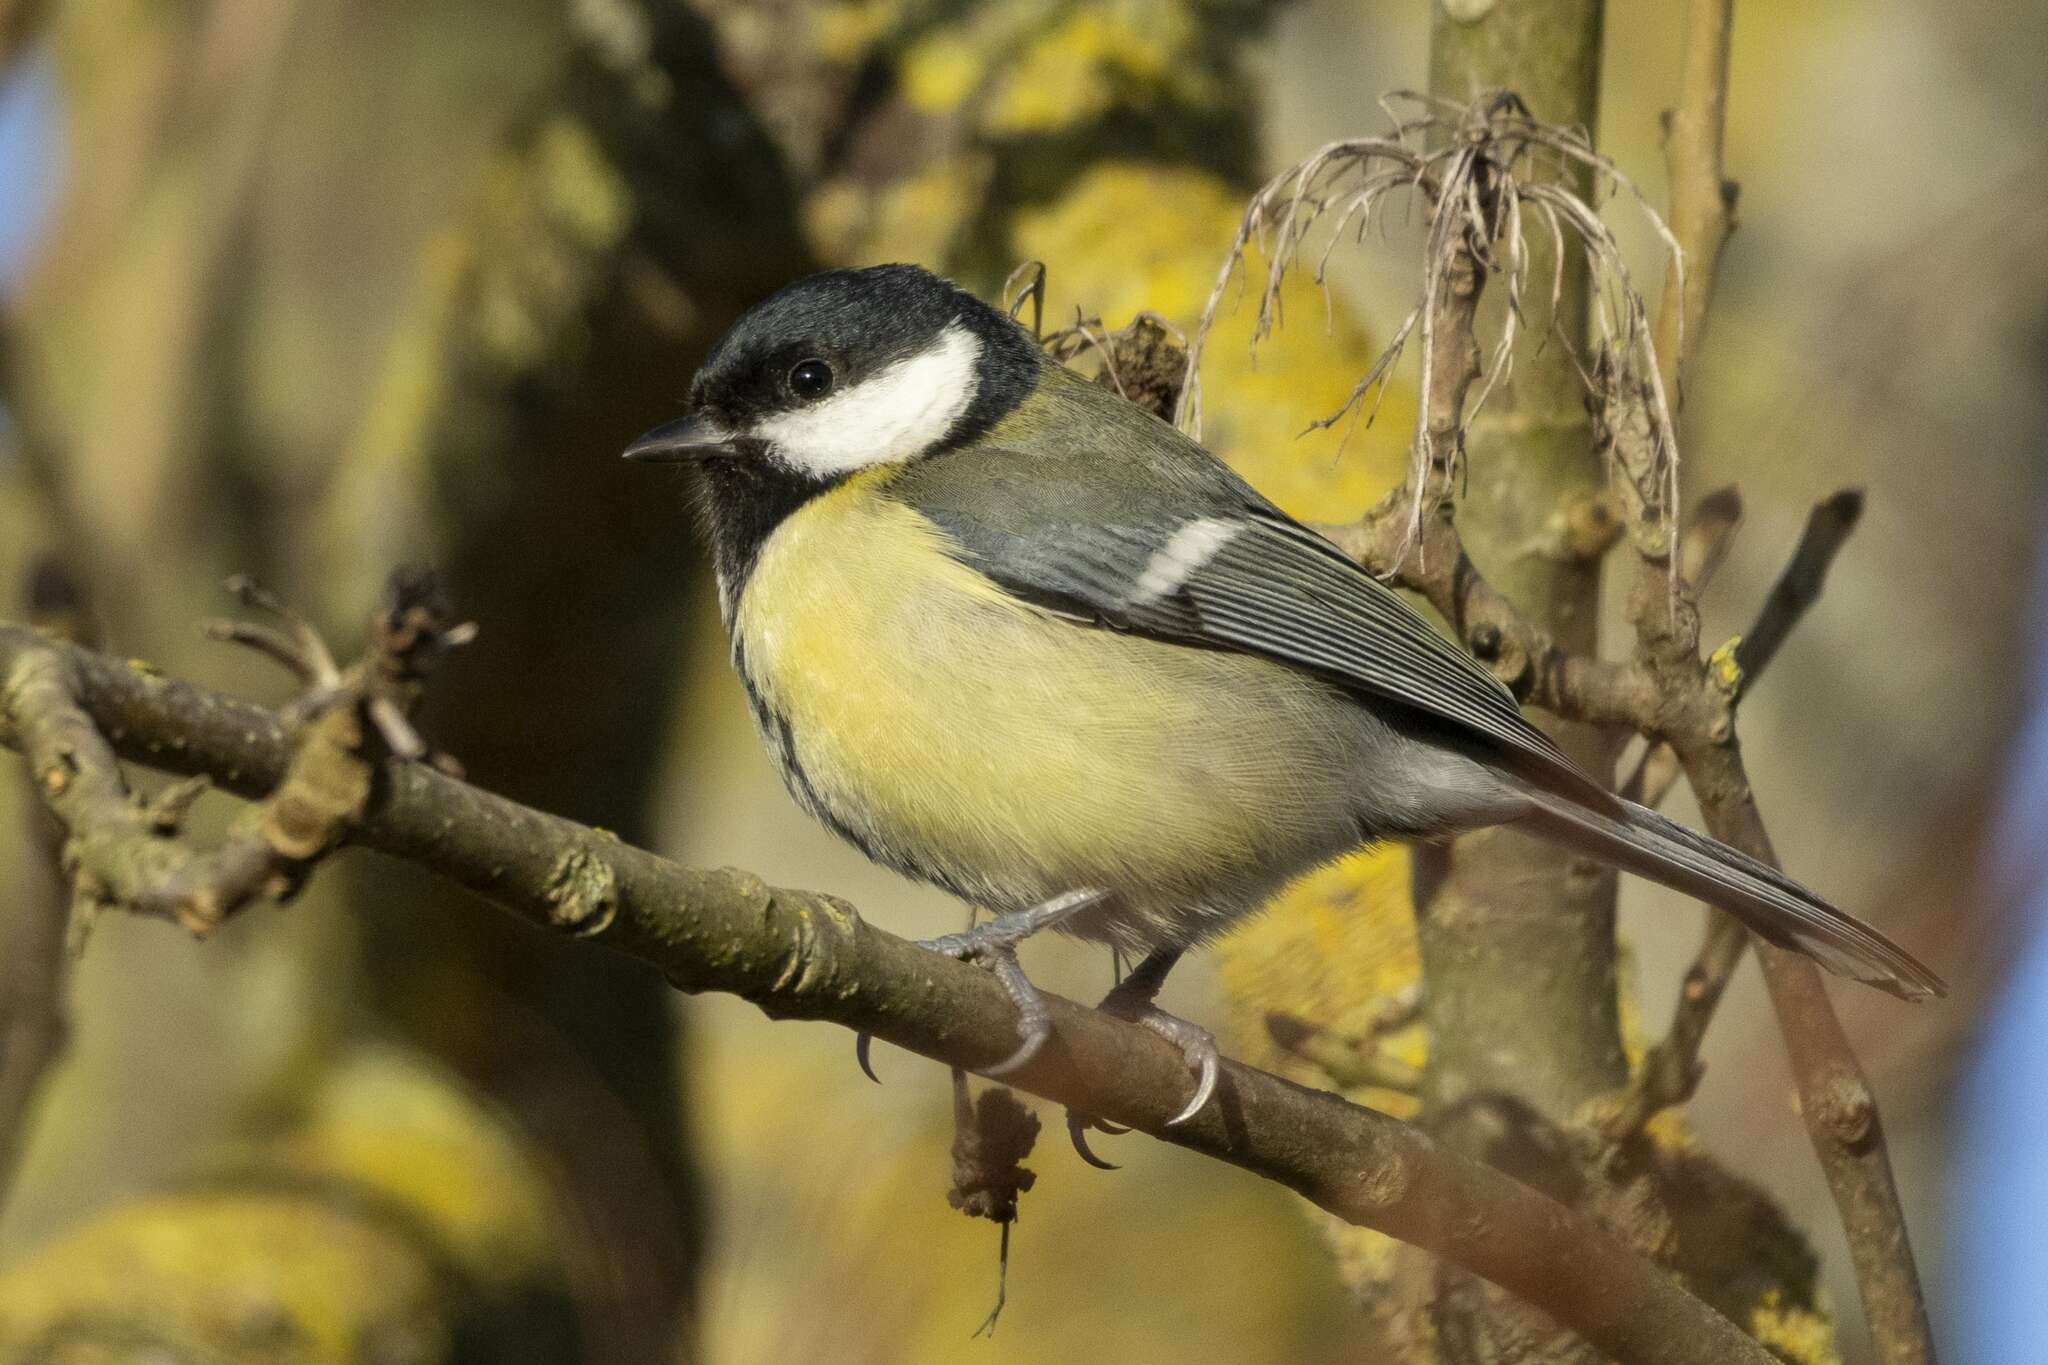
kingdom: Animalia
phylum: Chordata
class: Aves
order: Passeriformes
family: Paridae
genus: Parus
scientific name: Parus major
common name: Great tit
